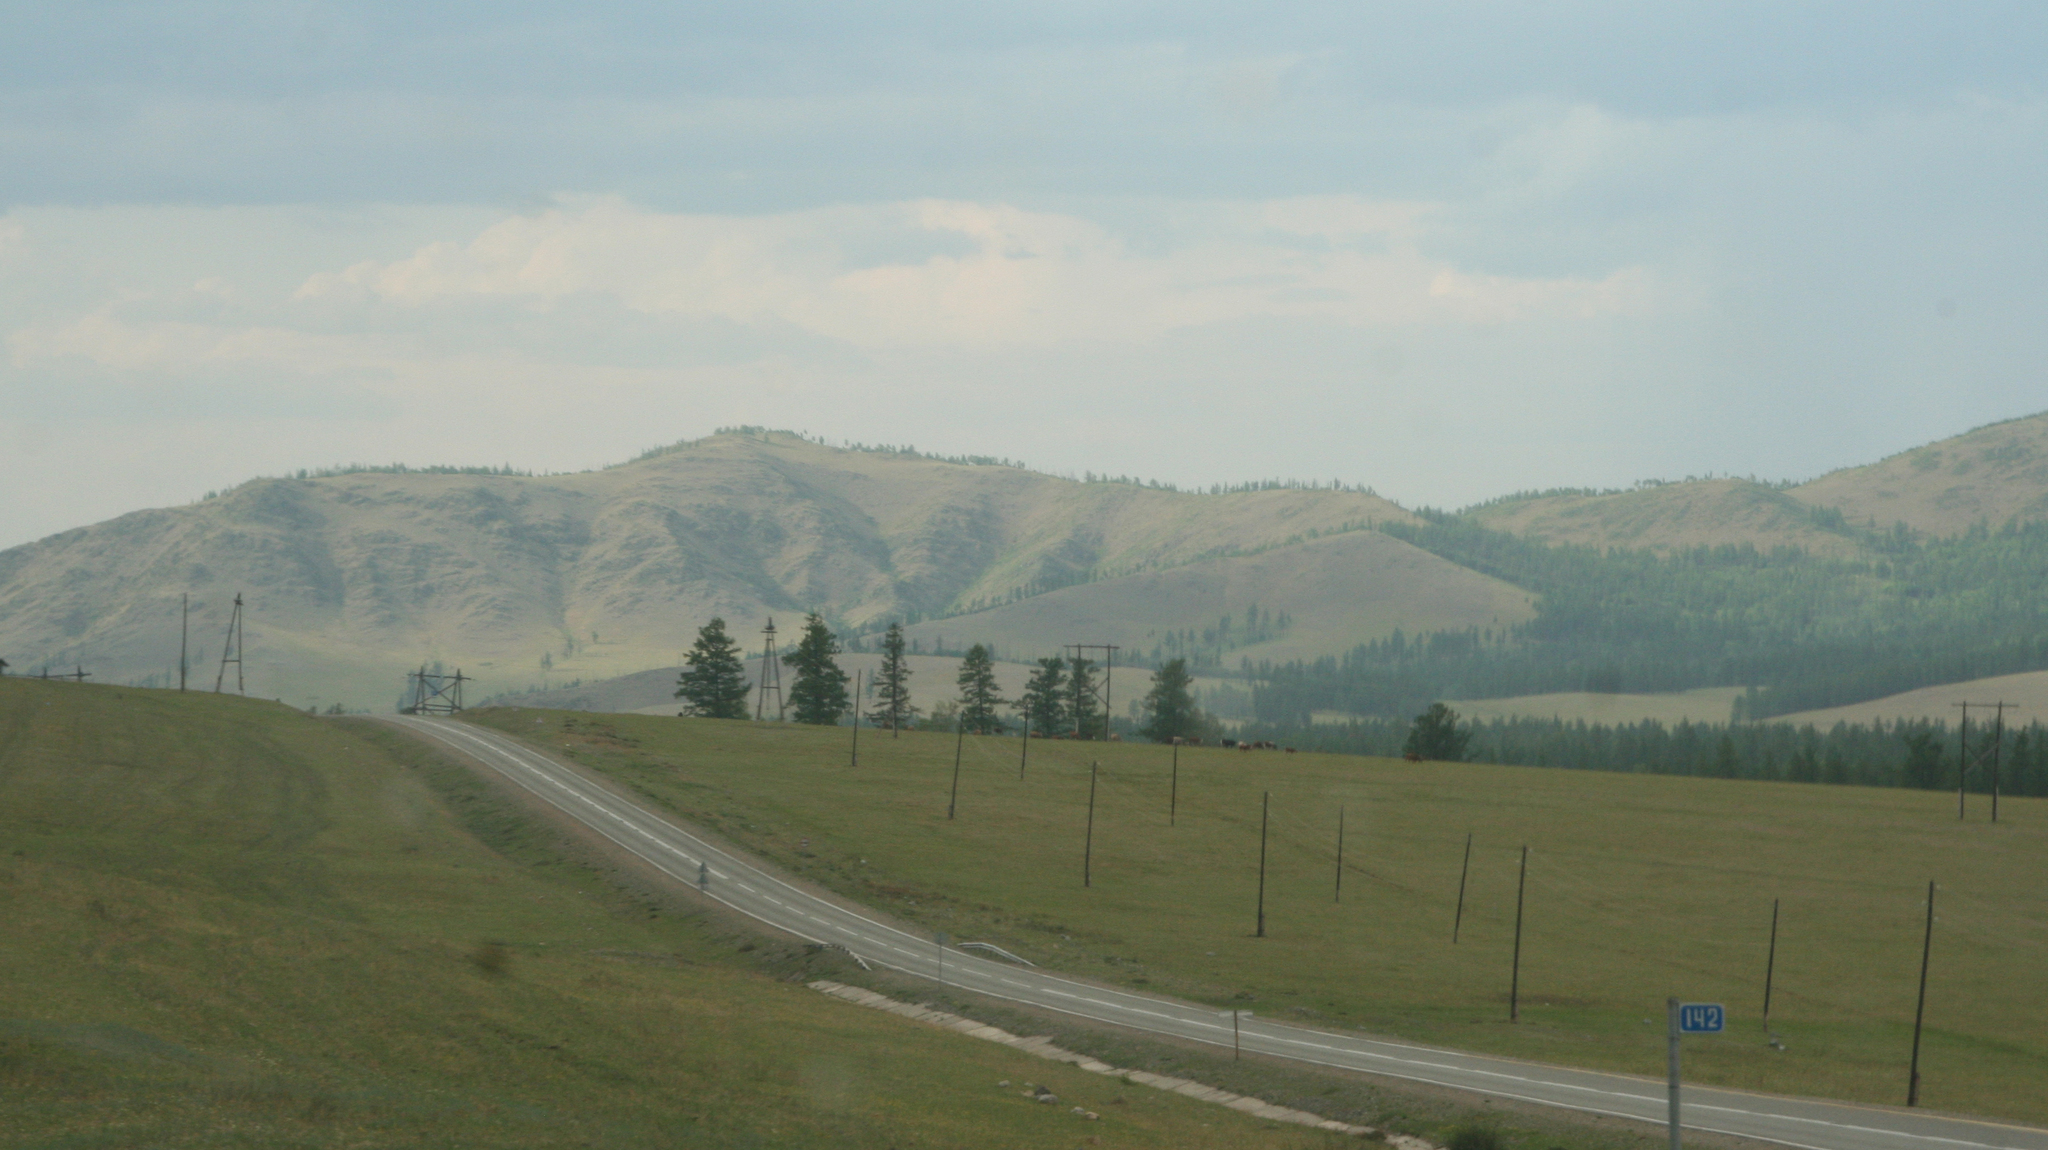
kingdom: Plantae
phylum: Tracheophyta
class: Pinopsida
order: Pinales
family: Pinaceae
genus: Larix
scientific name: Larix sibirica
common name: Siberian larch
